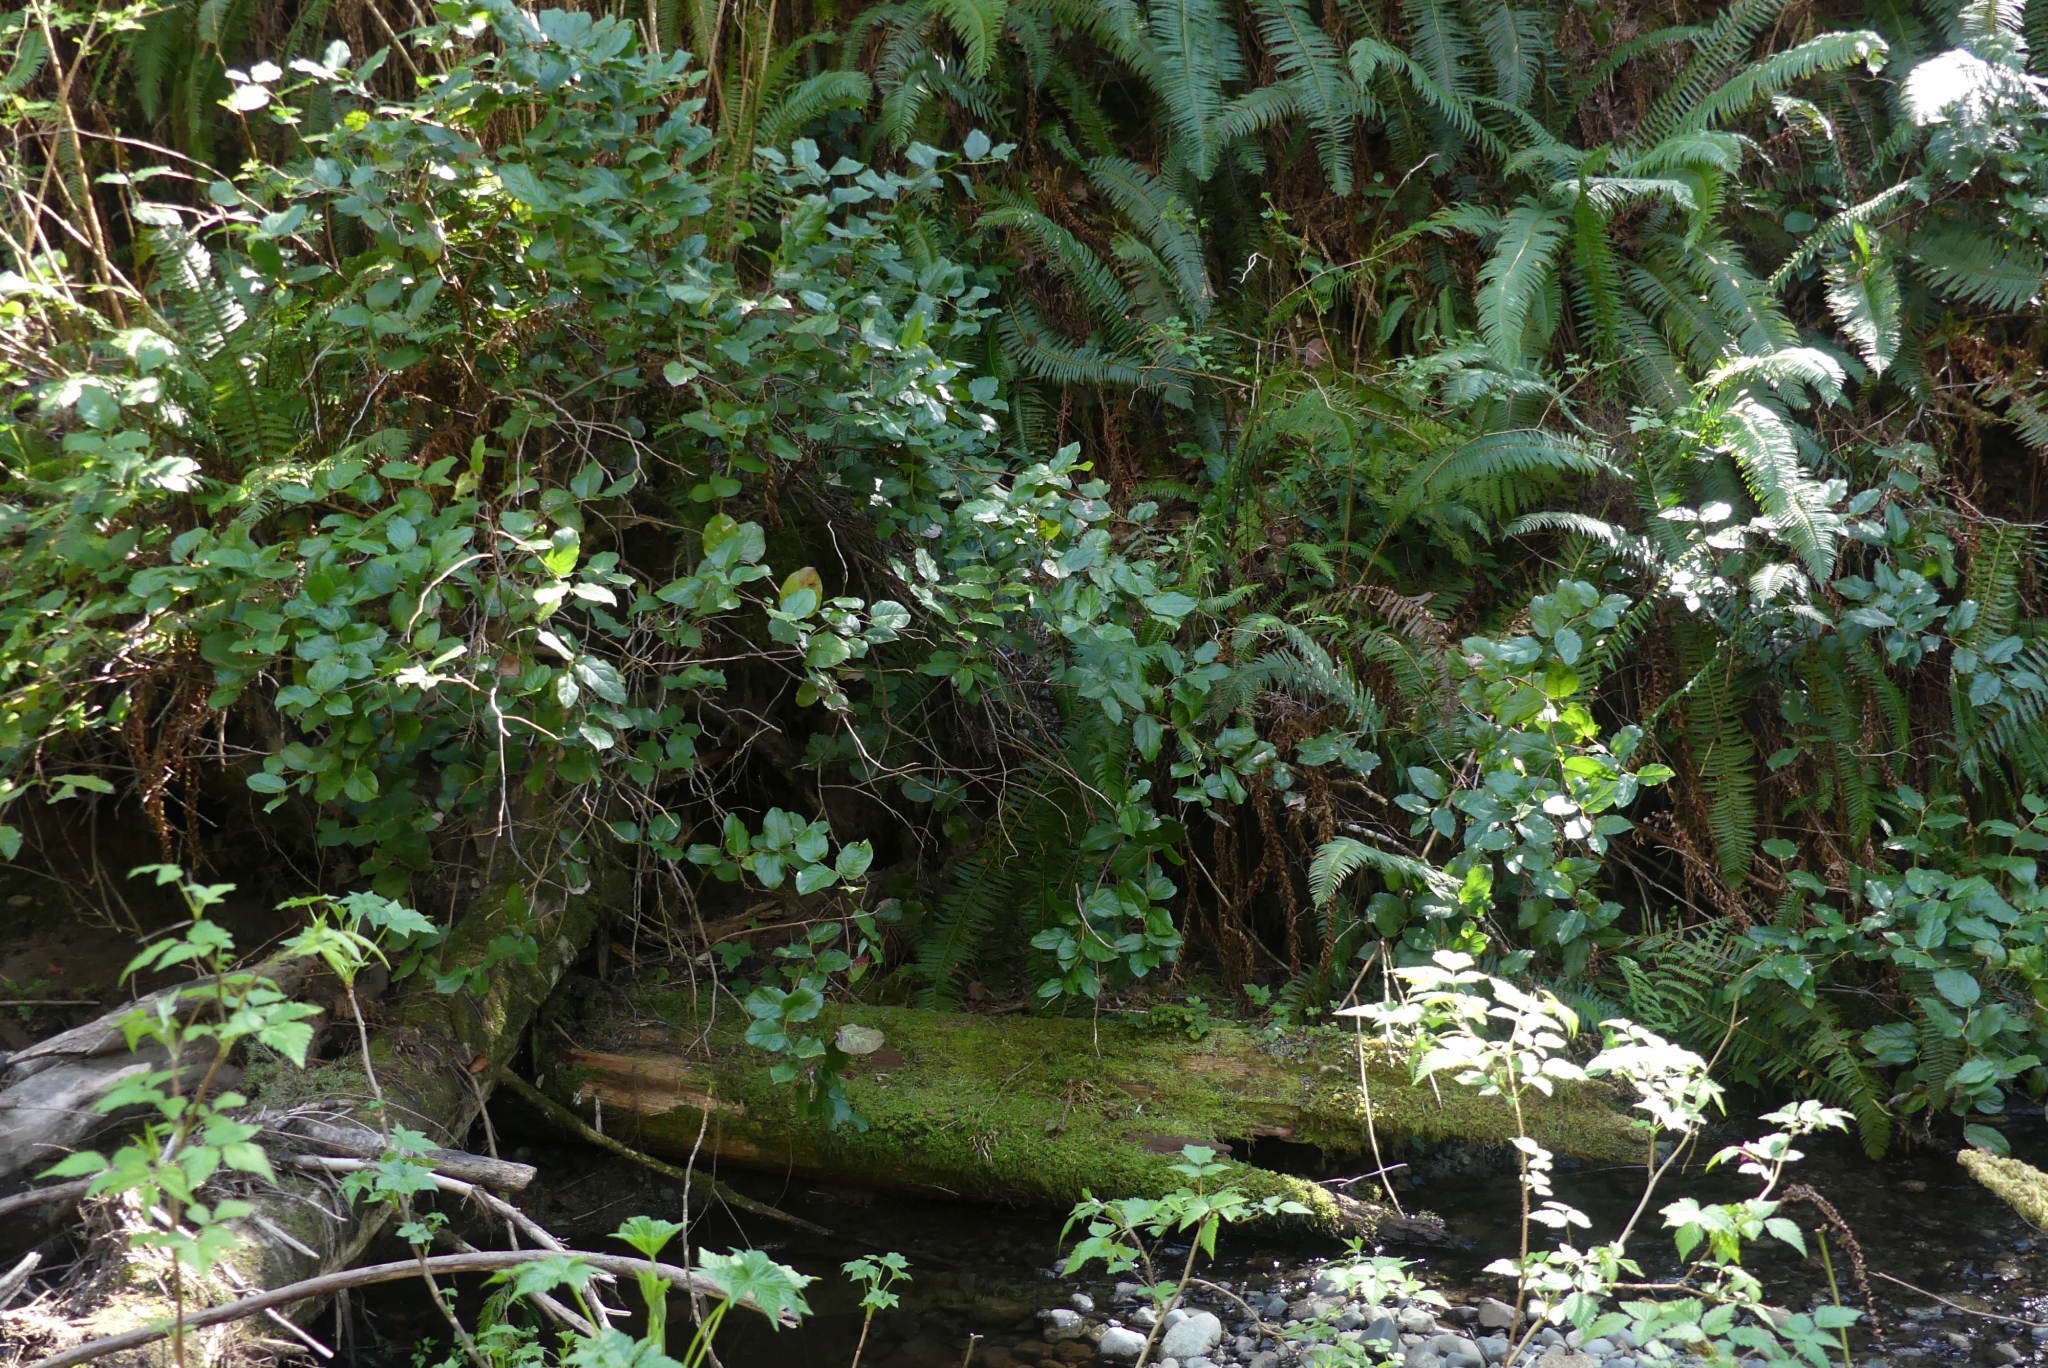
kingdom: Plantae
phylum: Tracheophyta
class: Magnoliopsida
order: Ericales
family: Ericaceae
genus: Gaultheria
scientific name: Gaultheria shallon
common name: Shallon
